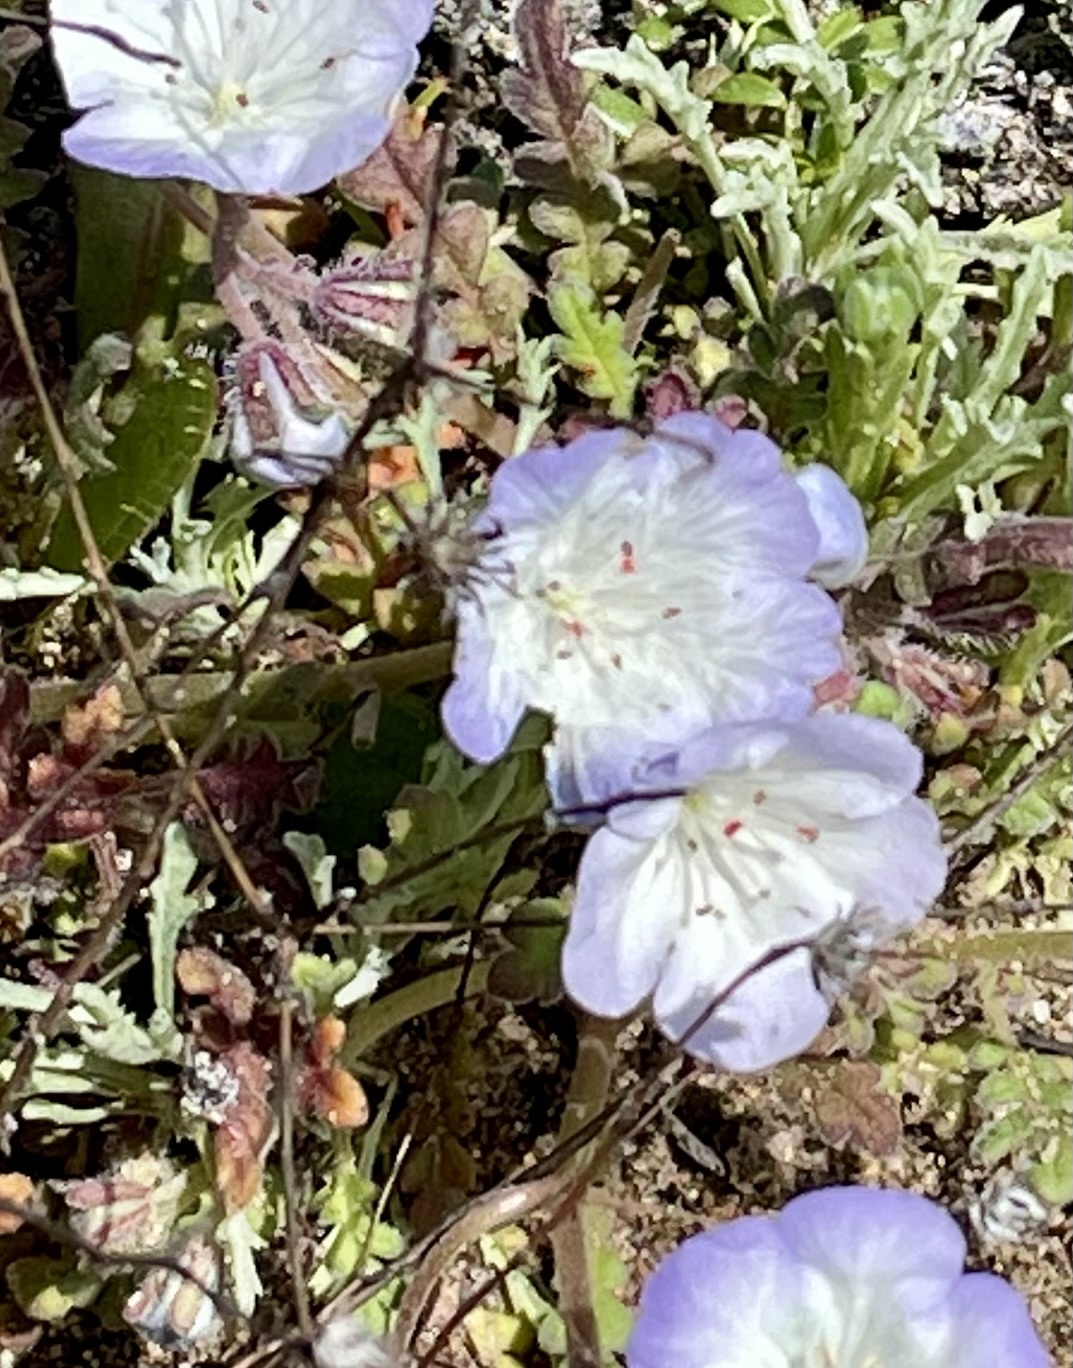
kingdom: Plantae
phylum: Tracheophyta
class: Magnoliopsida
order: Boraginales
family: Hydrophyllaceae
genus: Phacelia
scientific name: Phacelia douglasii
